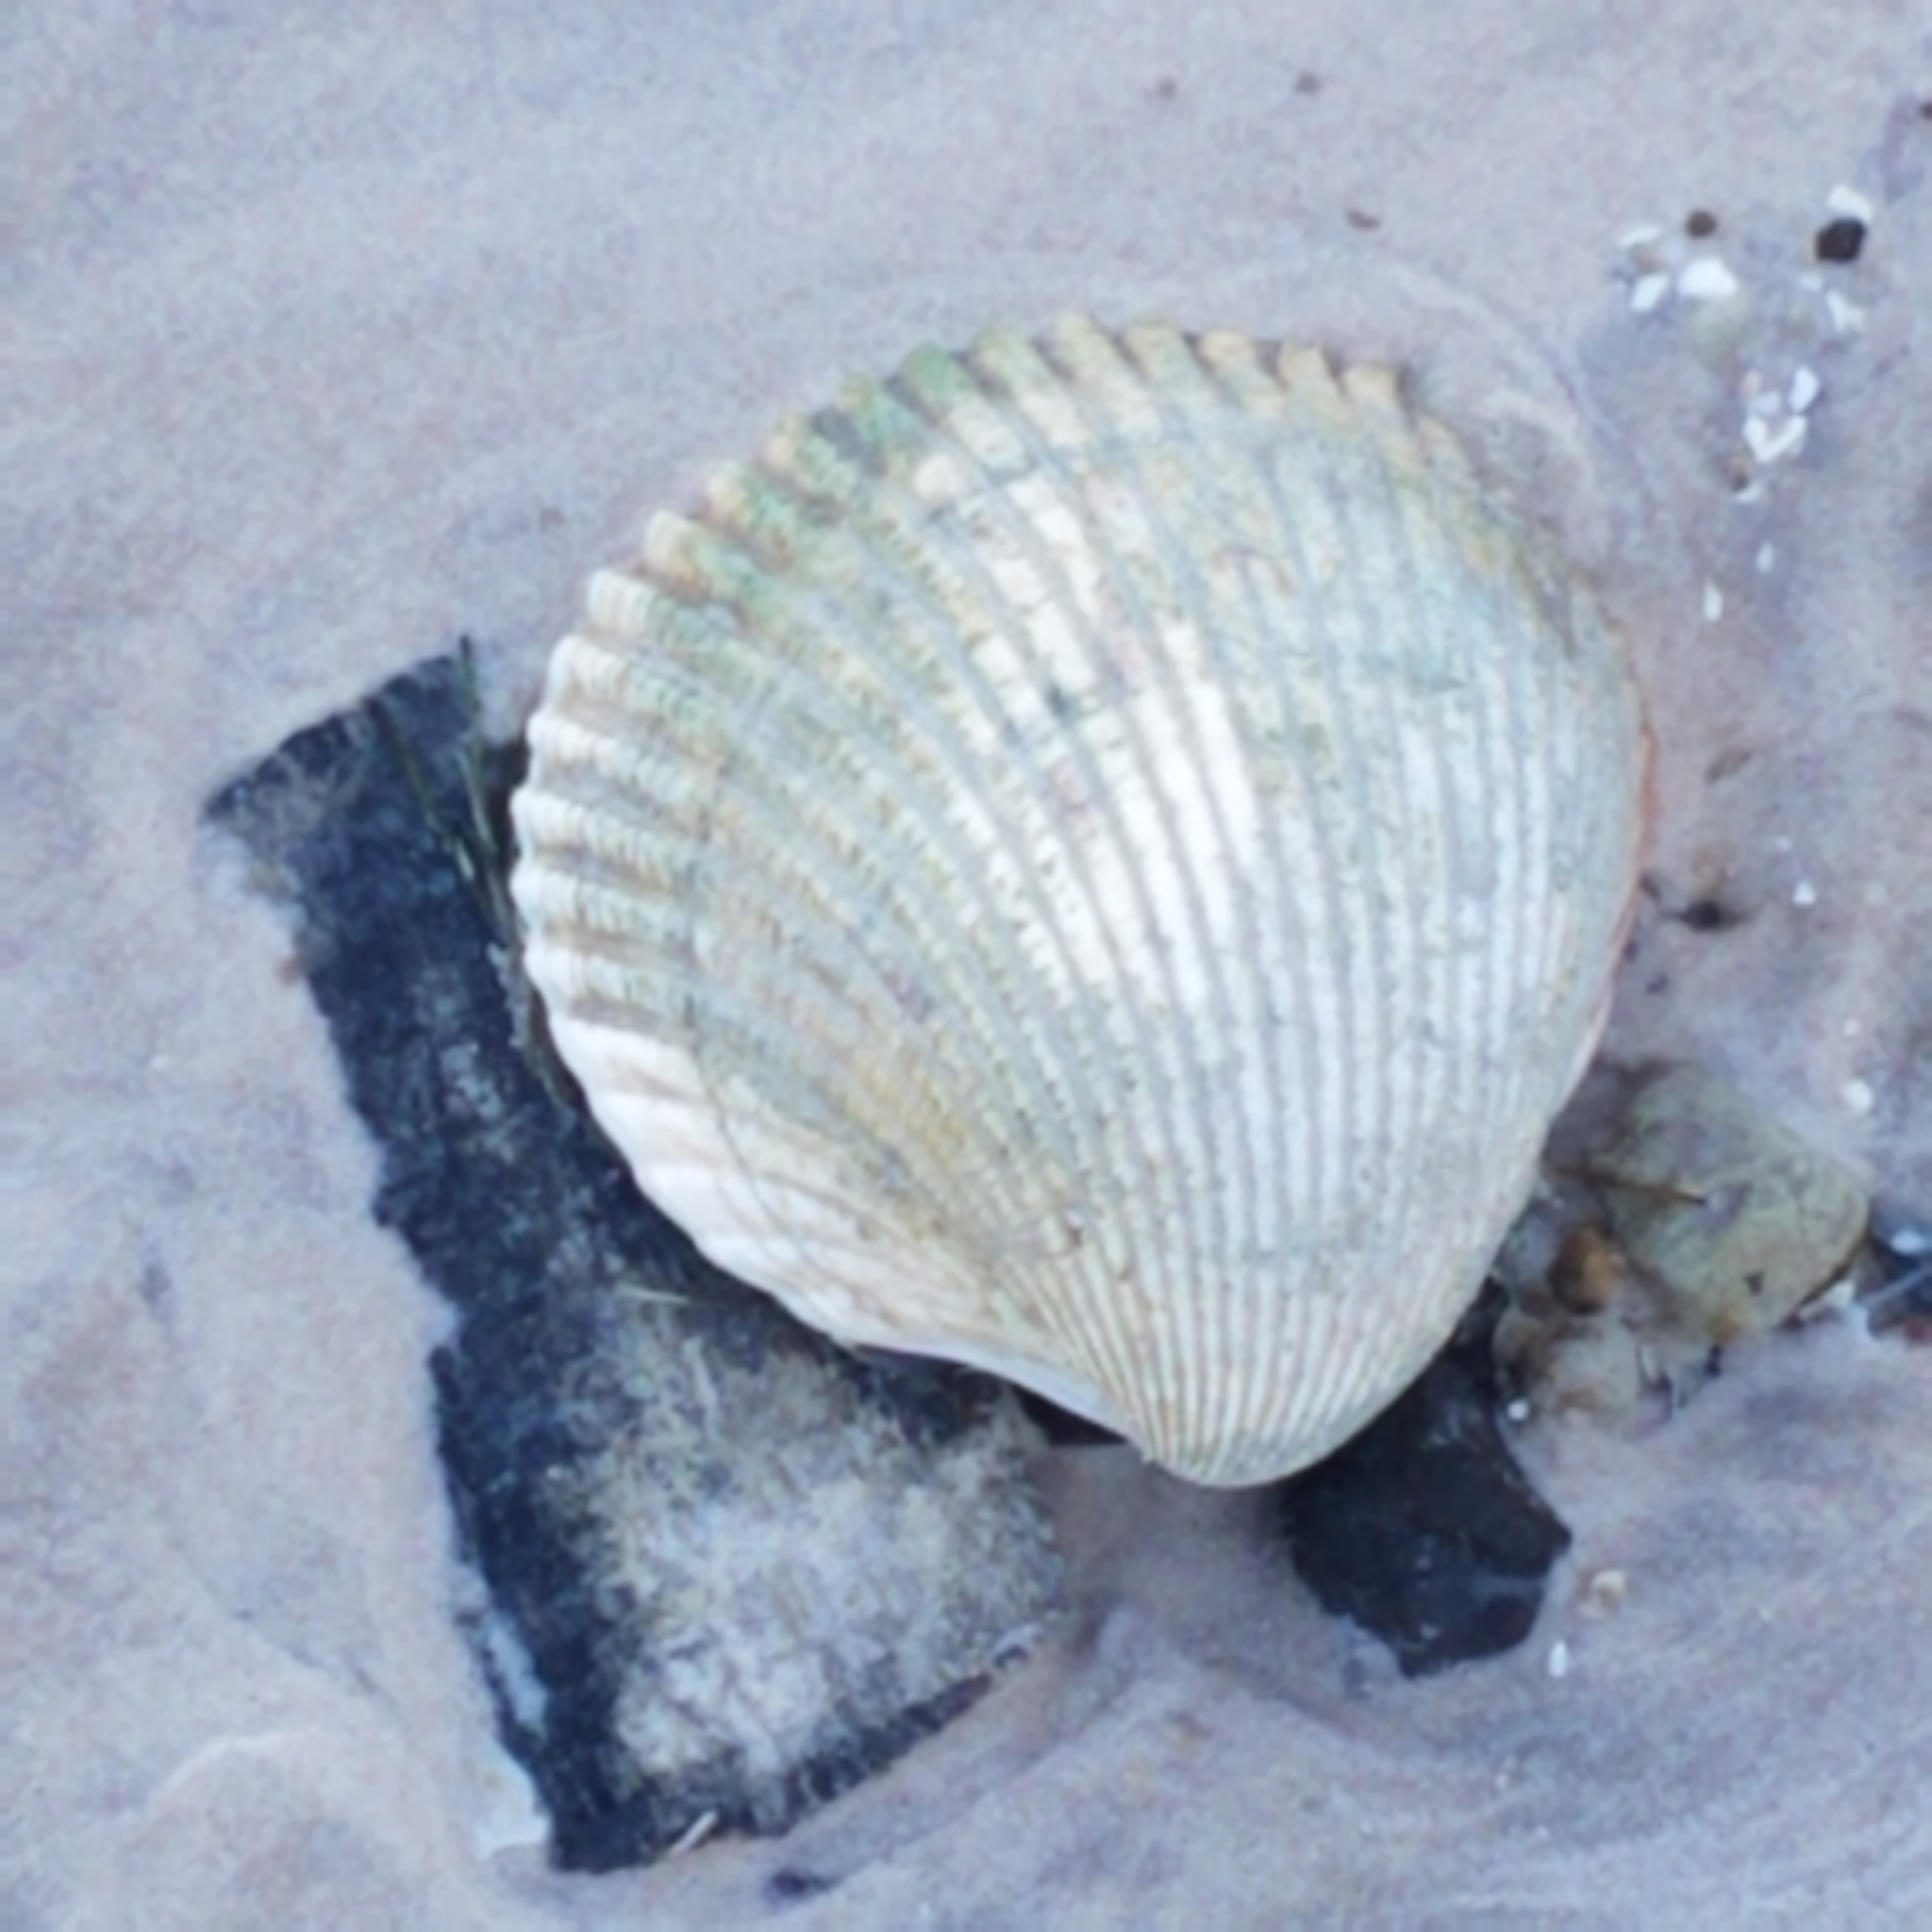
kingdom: Animalia
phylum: Mollusca
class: Bivalvia
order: Cardiida
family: Cardiidae
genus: Dinocardium
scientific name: Dinocardium robustum
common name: Atlantic giant cockle
